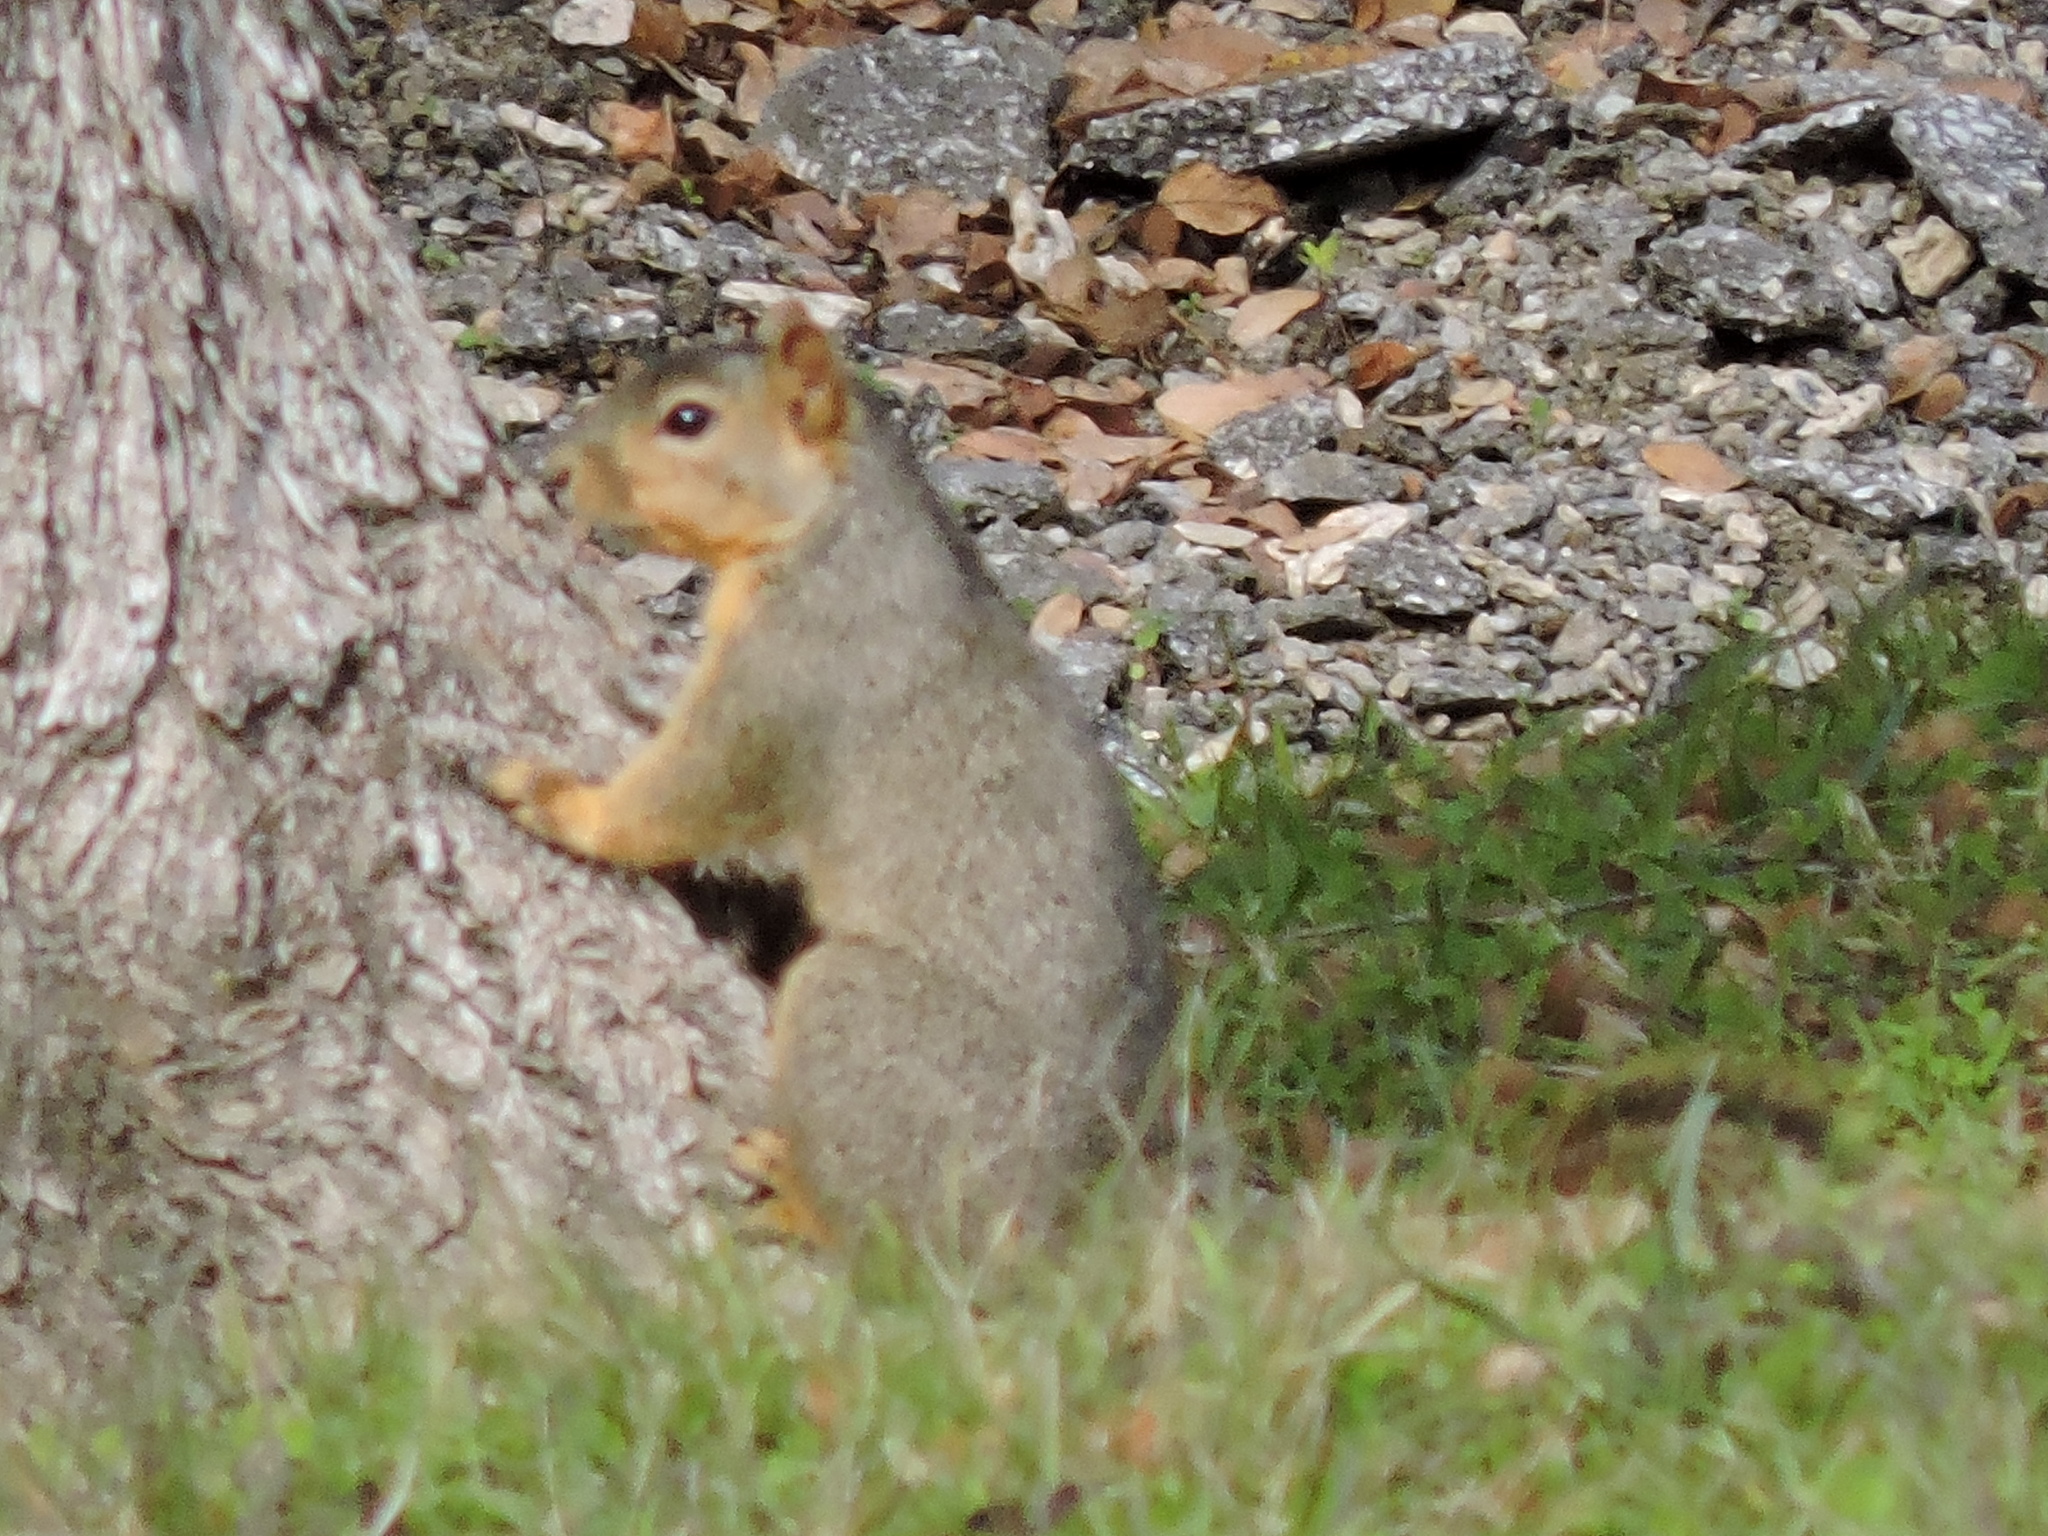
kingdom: Animalia
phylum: Chordata
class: Mammalia
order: Rodentia
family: Sciuridae
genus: Sciurus
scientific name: Sciurus niger
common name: Fox squirrel
